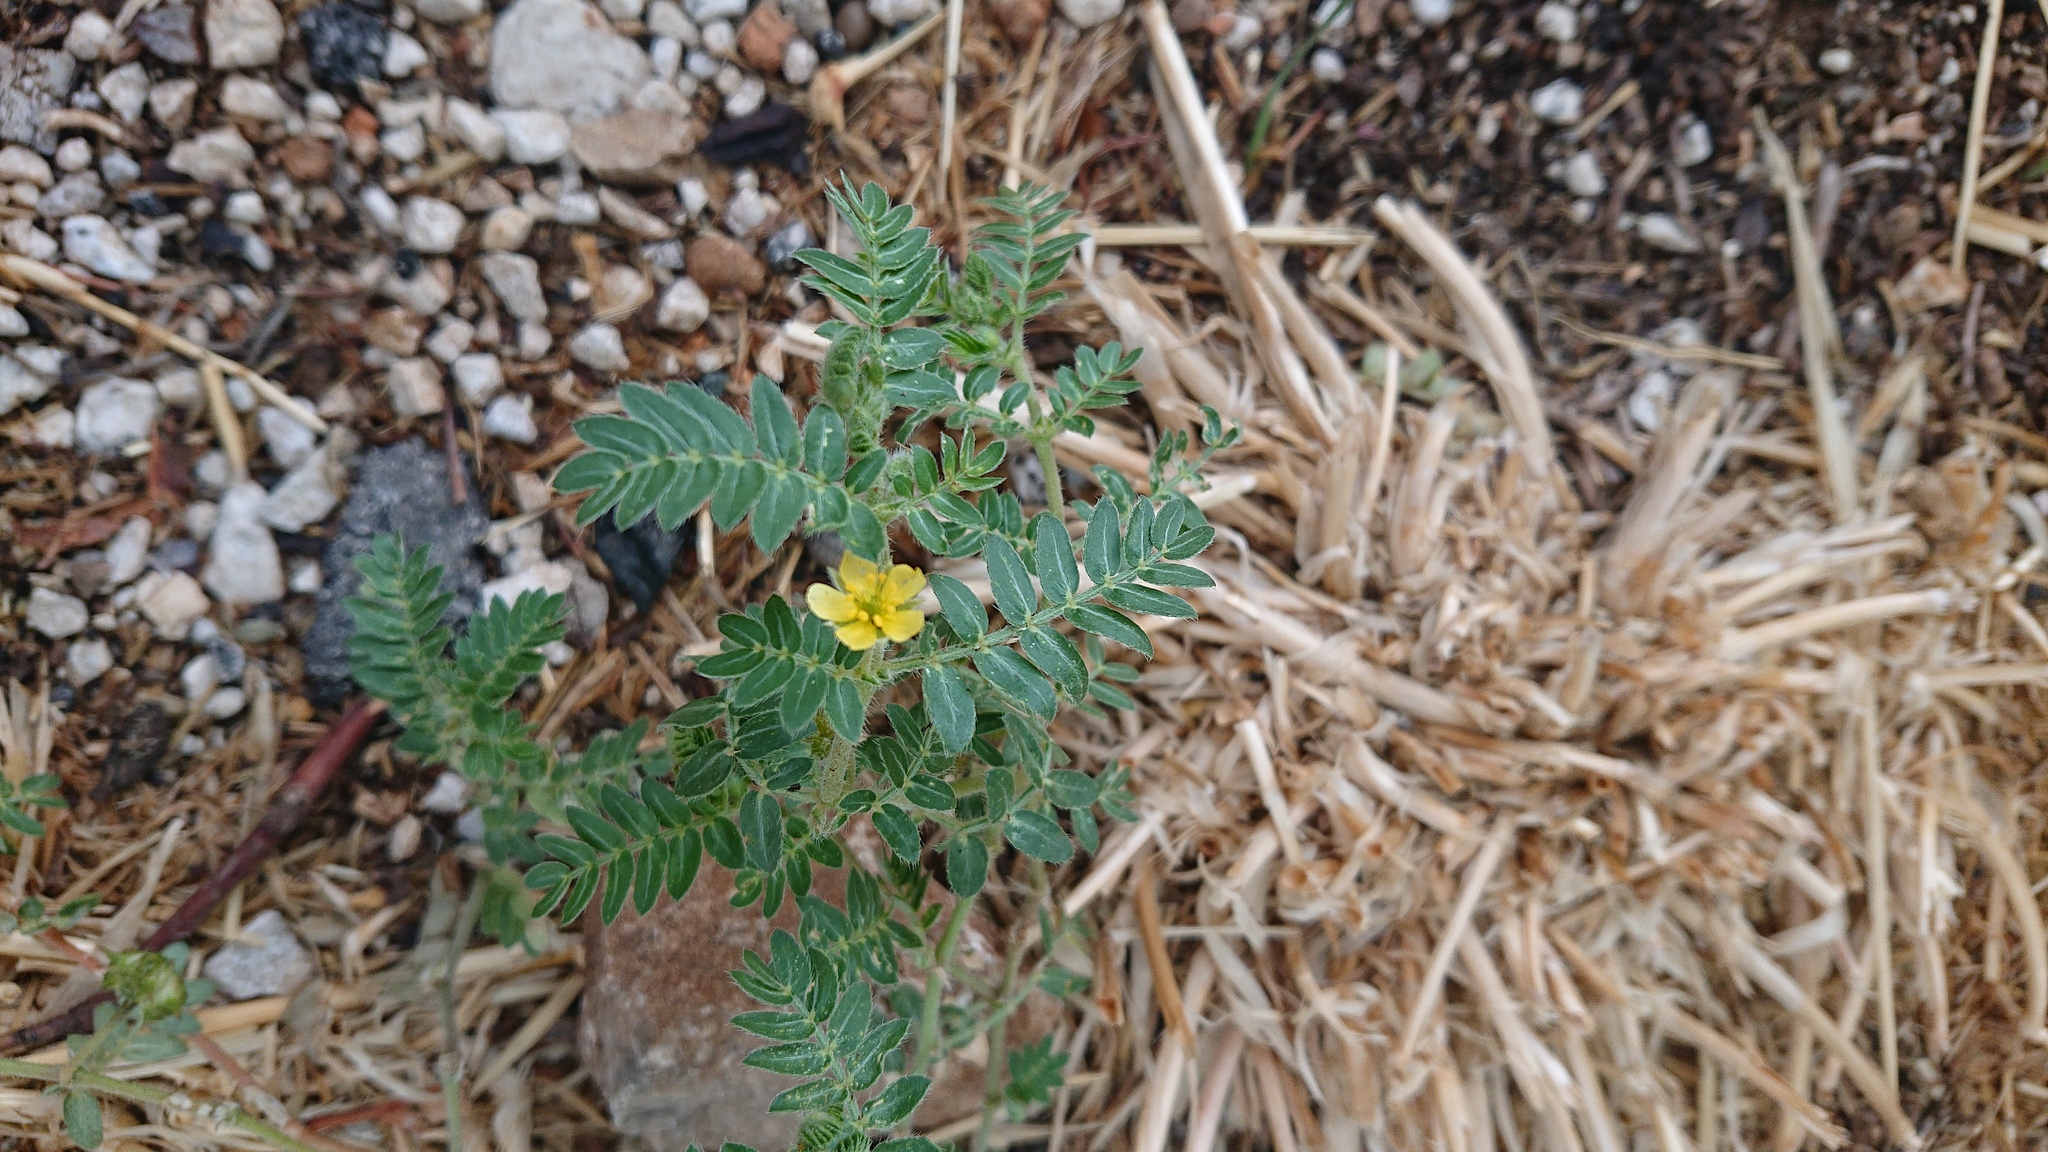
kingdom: Plantae
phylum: Tracheophyta
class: Magnoliopsida
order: Zygophyllales
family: Zygophyllaceae
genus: Tribulus
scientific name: Tribulus terrestris
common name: Puncturevine
